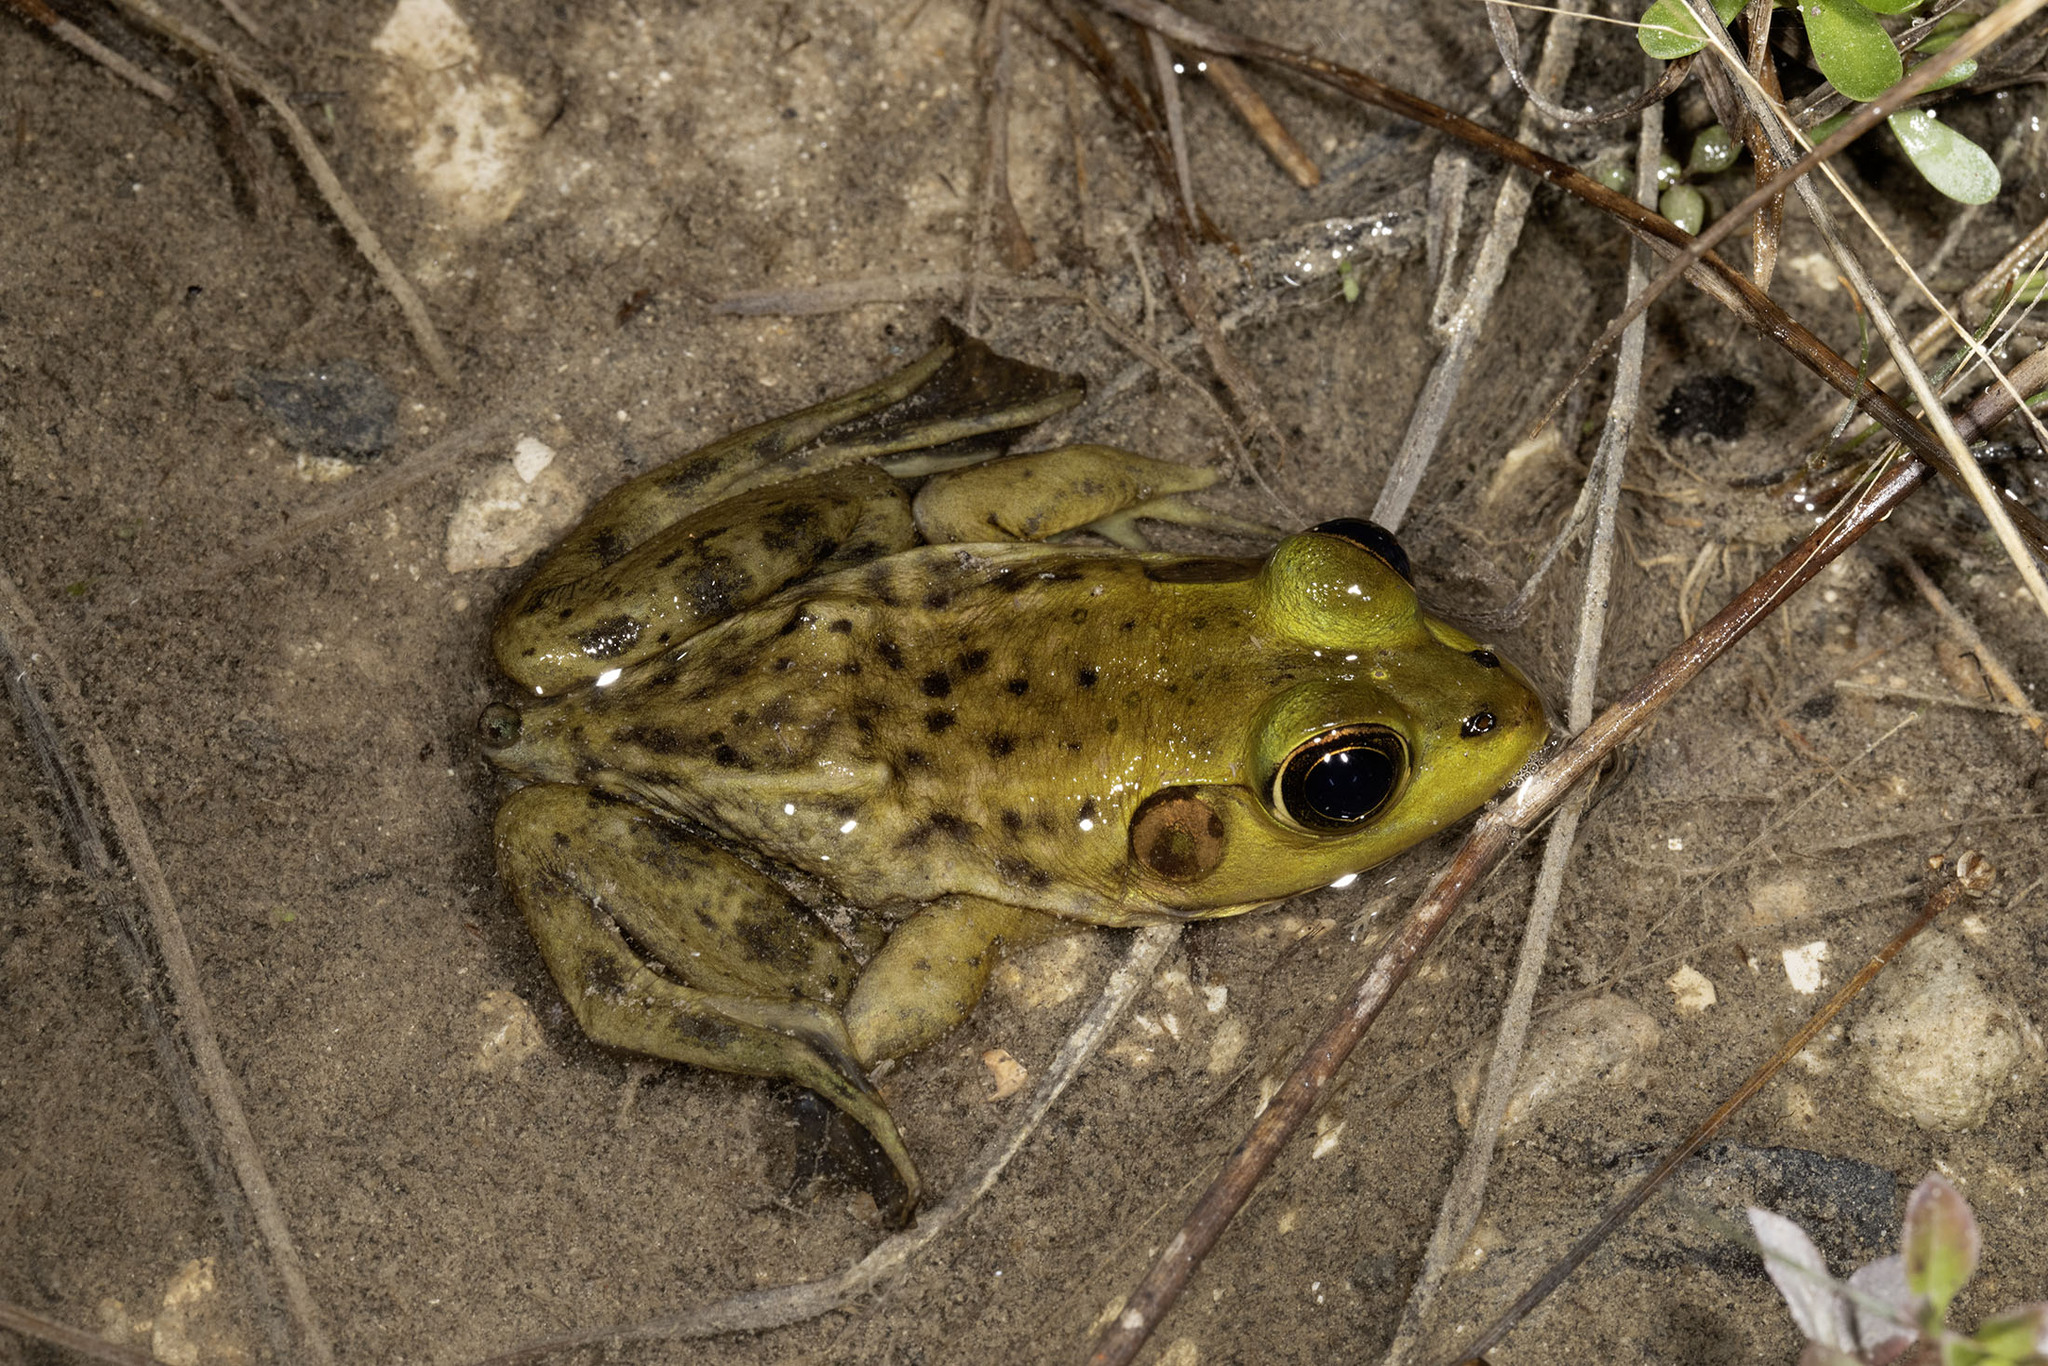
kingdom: Animalia
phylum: Chordata
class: Amphibia
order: Anura
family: Ranidae
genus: Lithobates
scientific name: Lithobates grylio
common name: Pig frog
